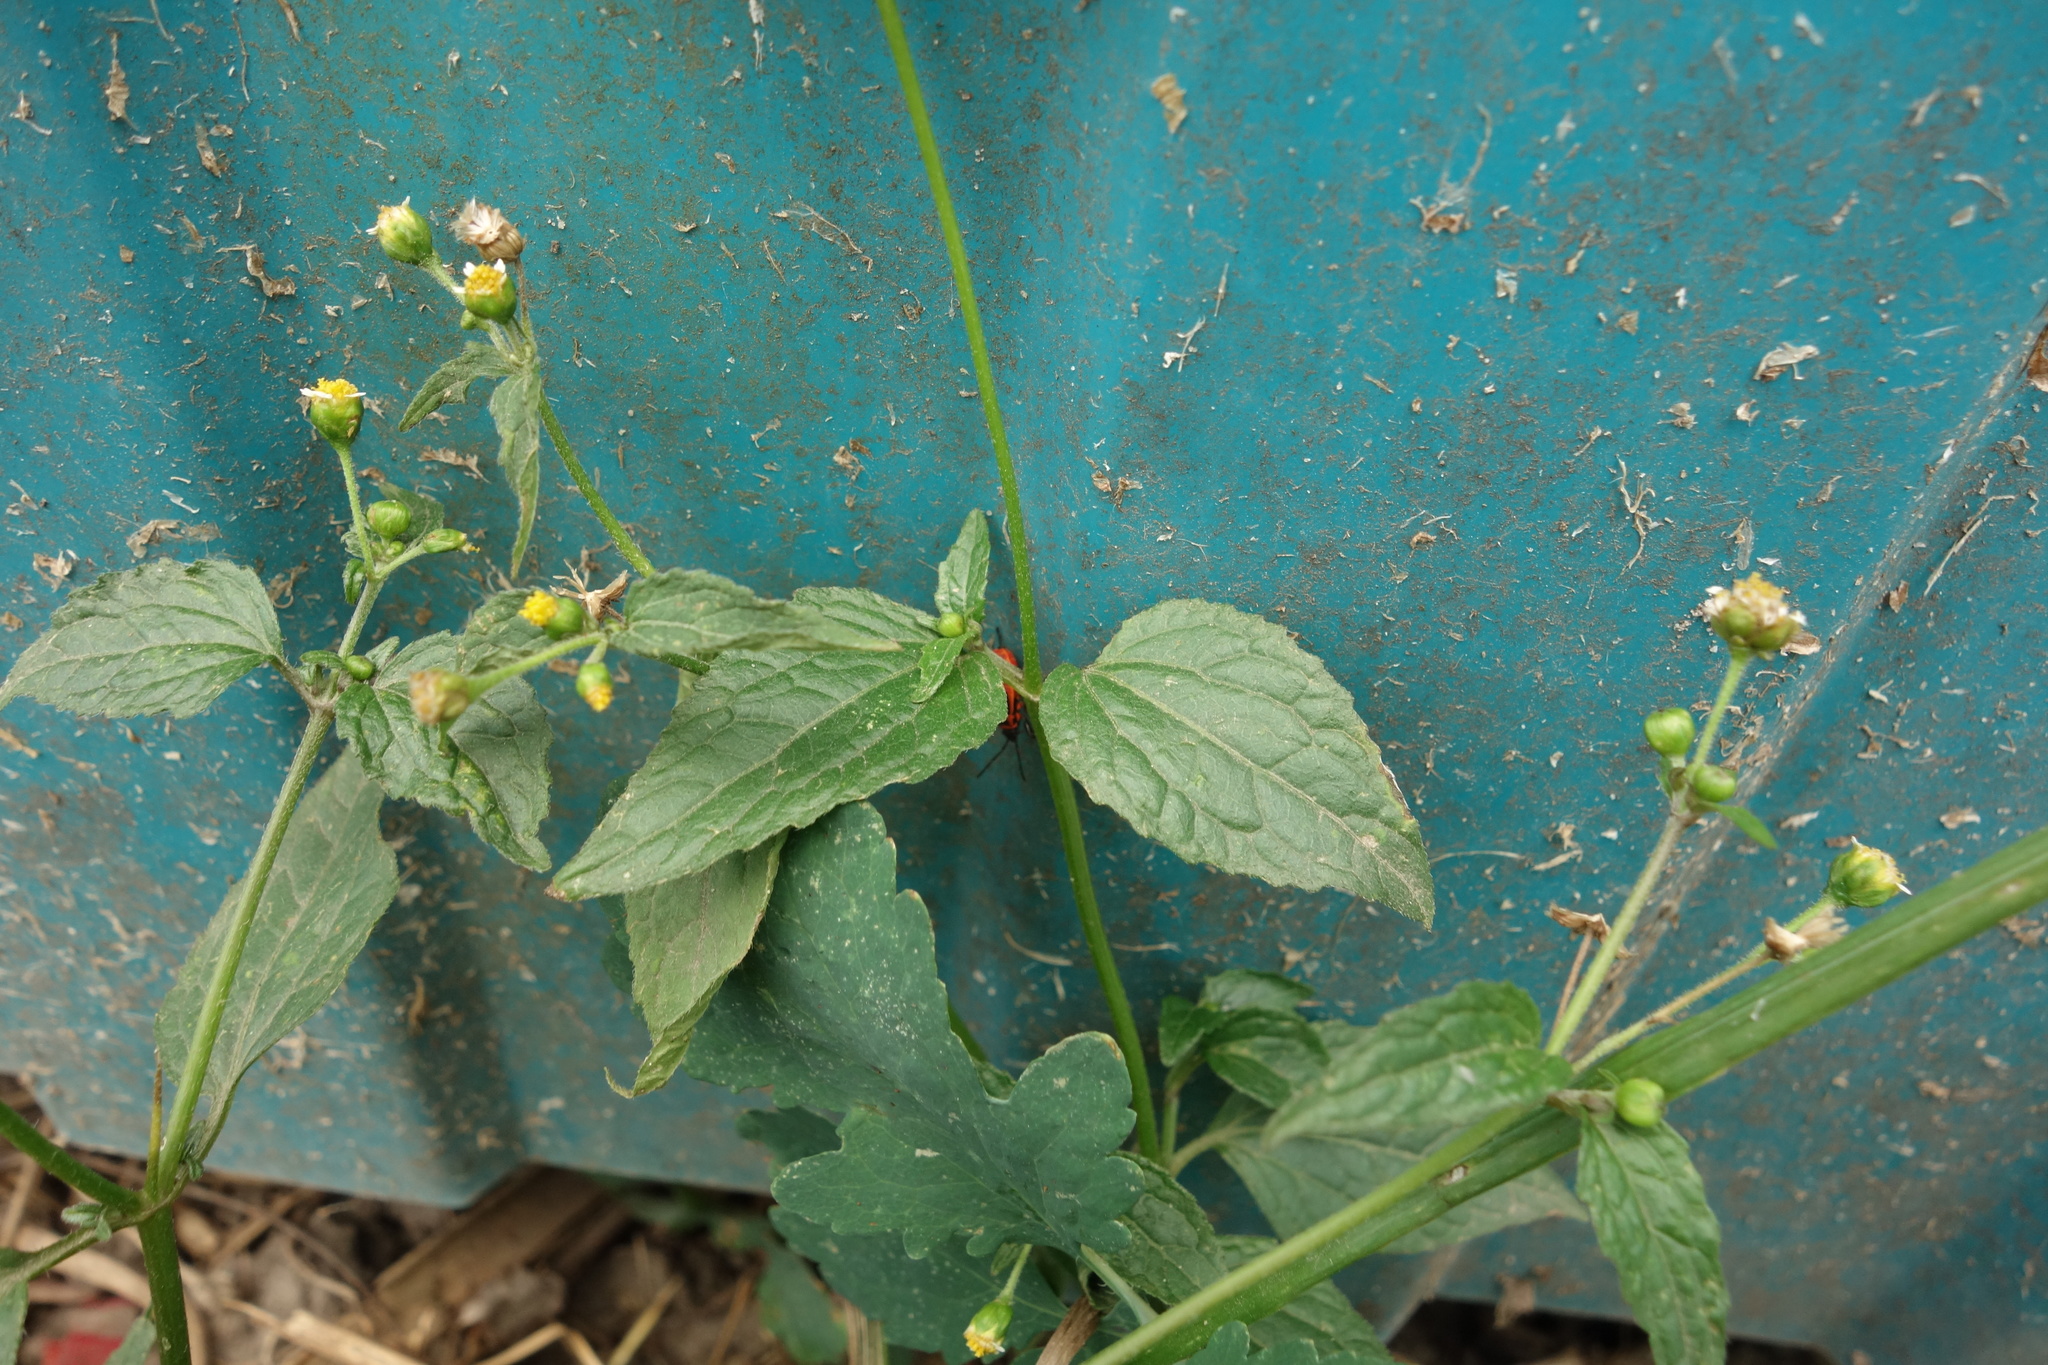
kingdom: Plantae
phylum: Tracheophyta
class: Magnoliopsida
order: Asterales
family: Asteraceae
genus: Galinsoga
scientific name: Galinsoga parviflora
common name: Gallant soldier
